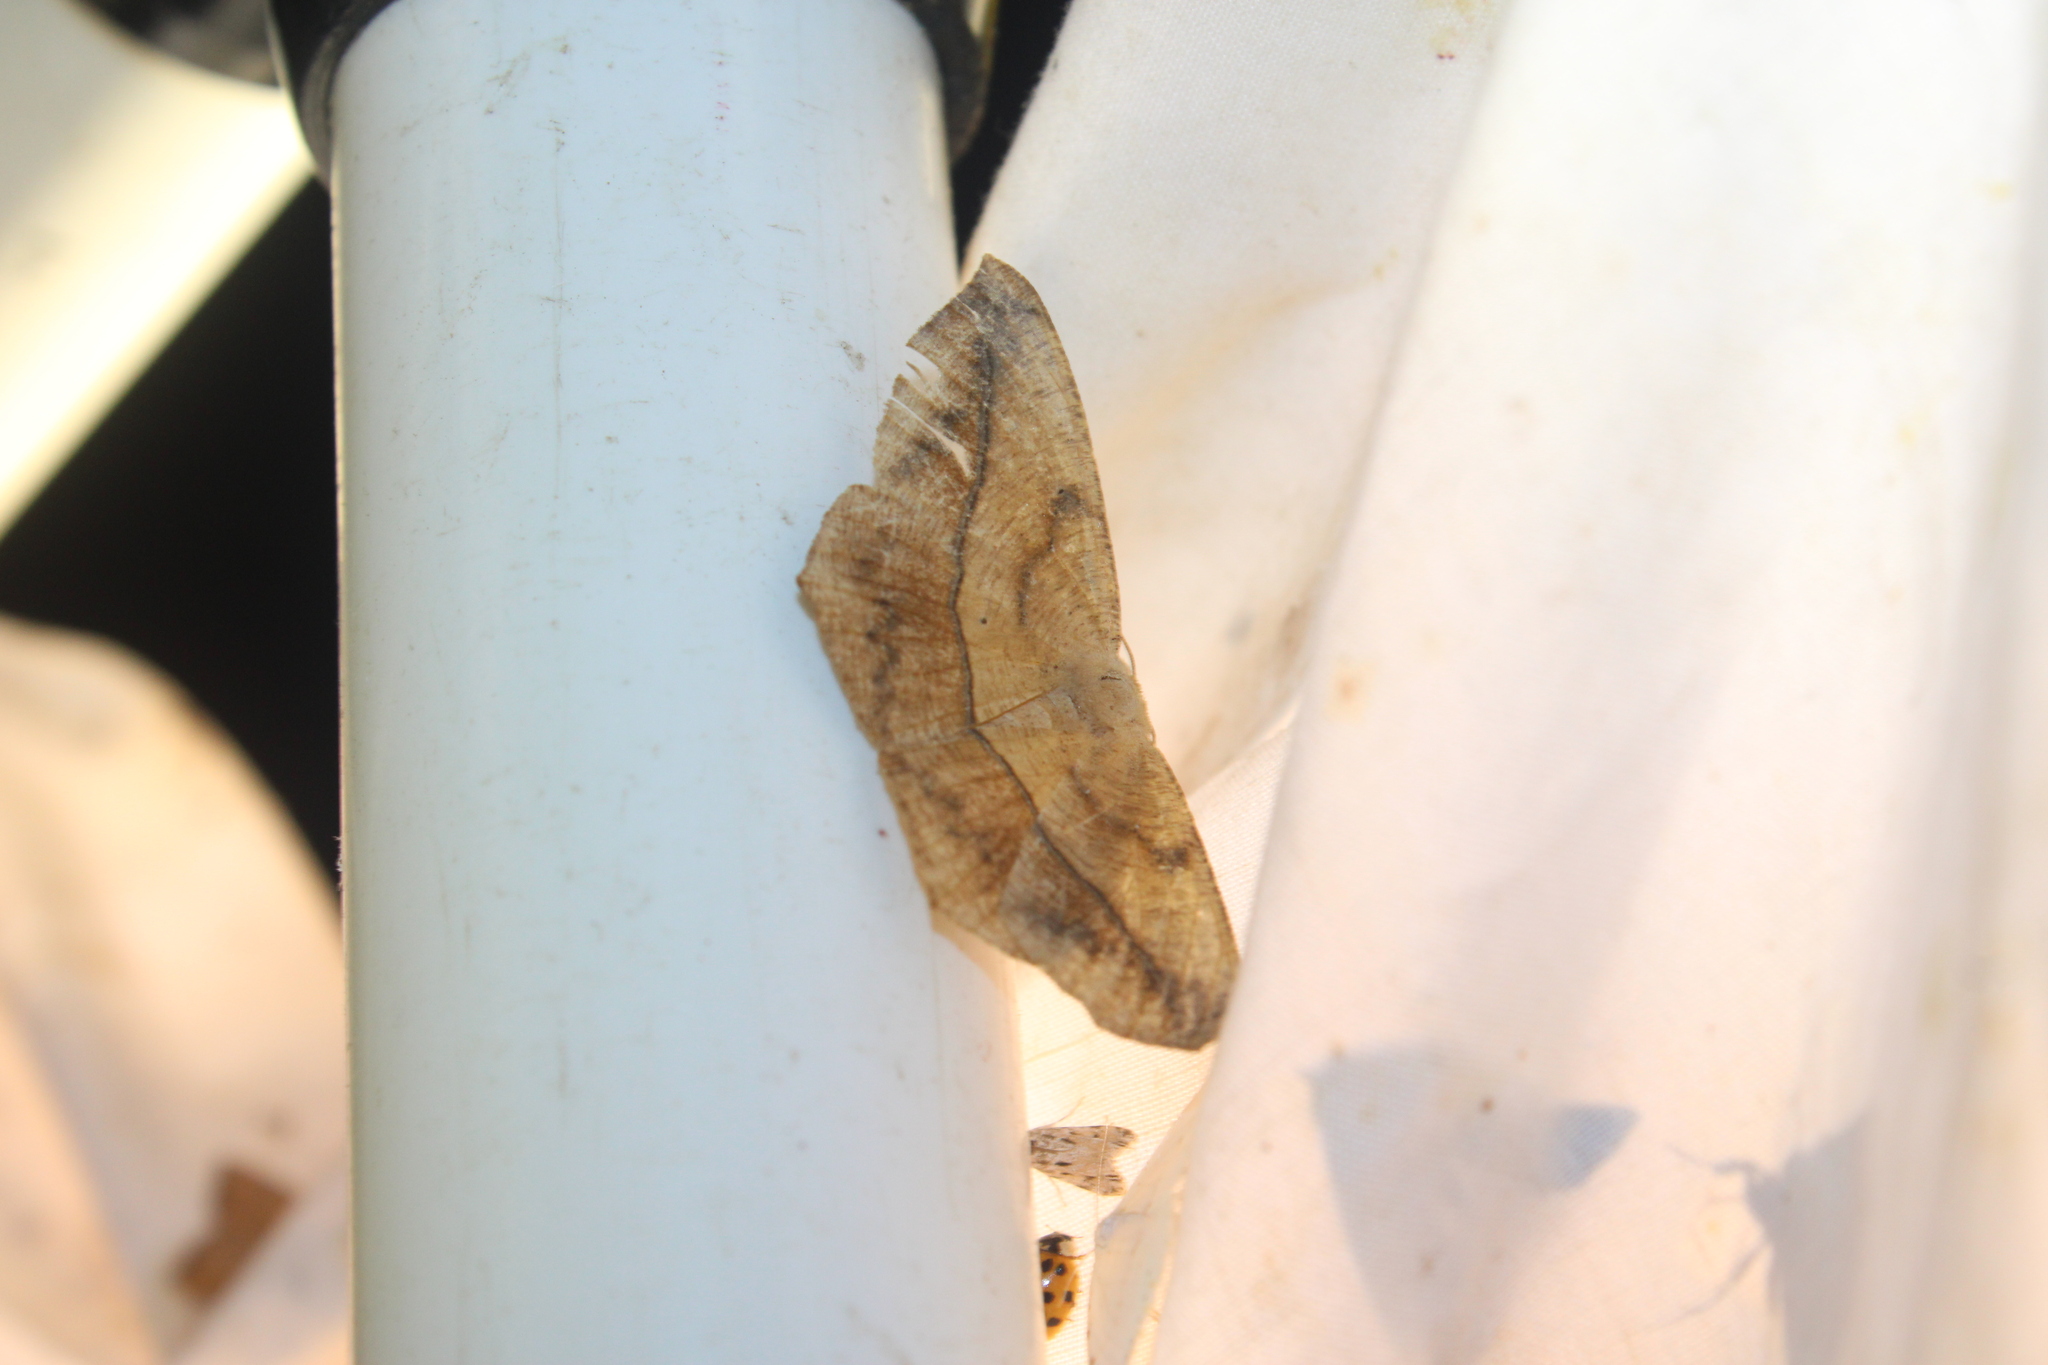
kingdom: Animalia
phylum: Arthropoda
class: Insecta
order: Lepidoptera
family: Geometridae
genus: Prochoerodes
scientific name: Prochoerodes lineola
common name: Large maple spanworm
